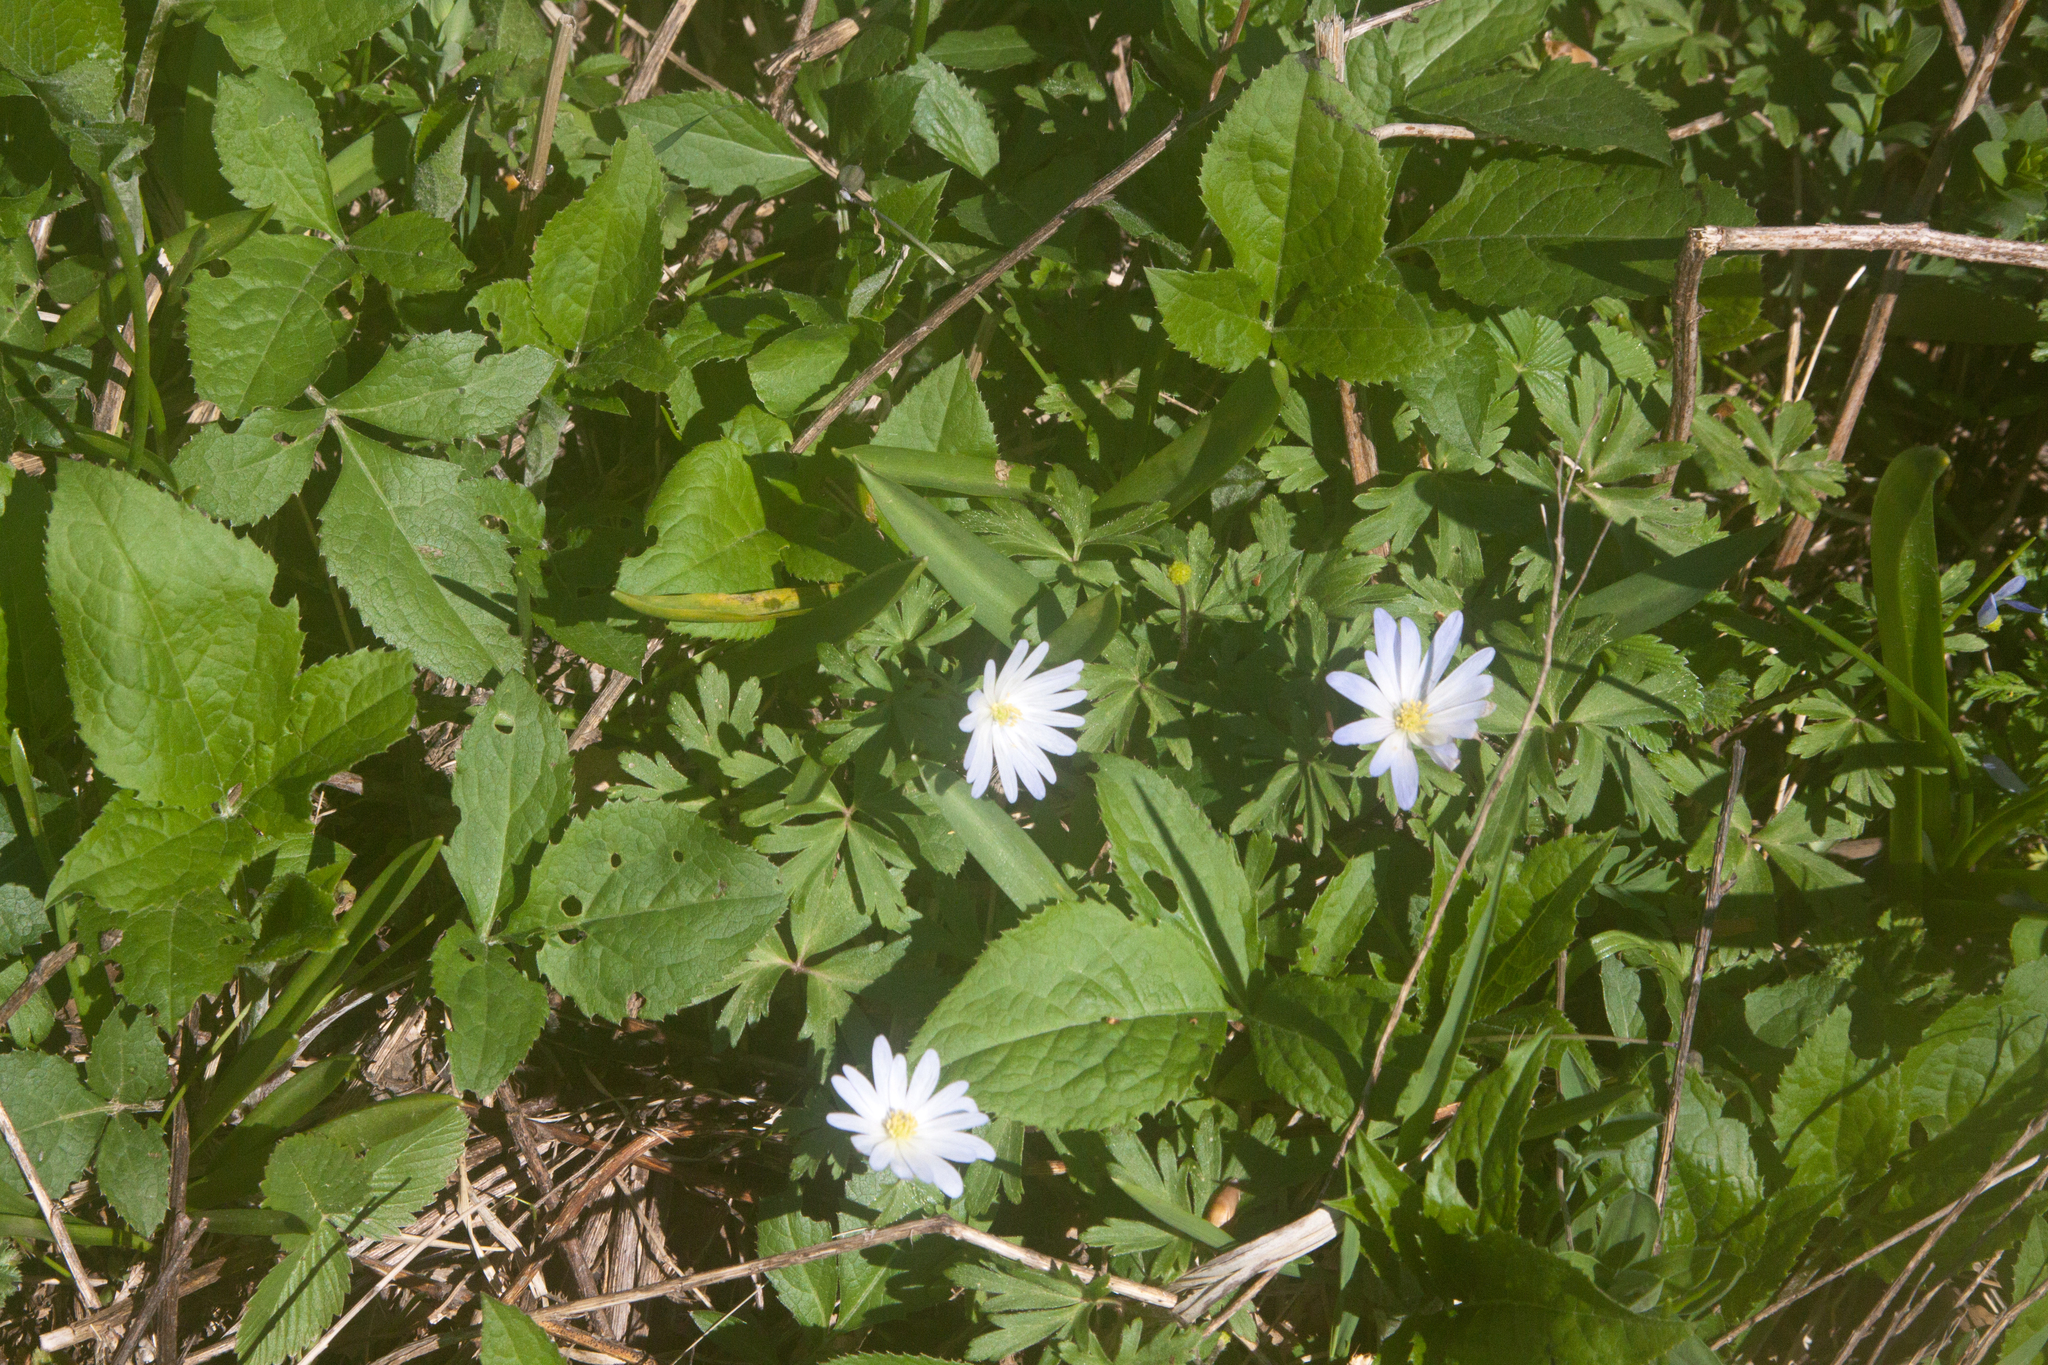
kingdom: Plantae
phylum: Tracheophyta
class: Magnoliopsida
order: Ranunculales
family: Ranunculaceae
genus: Anemone
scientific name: Anemone blanda
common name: Balkan anemone
